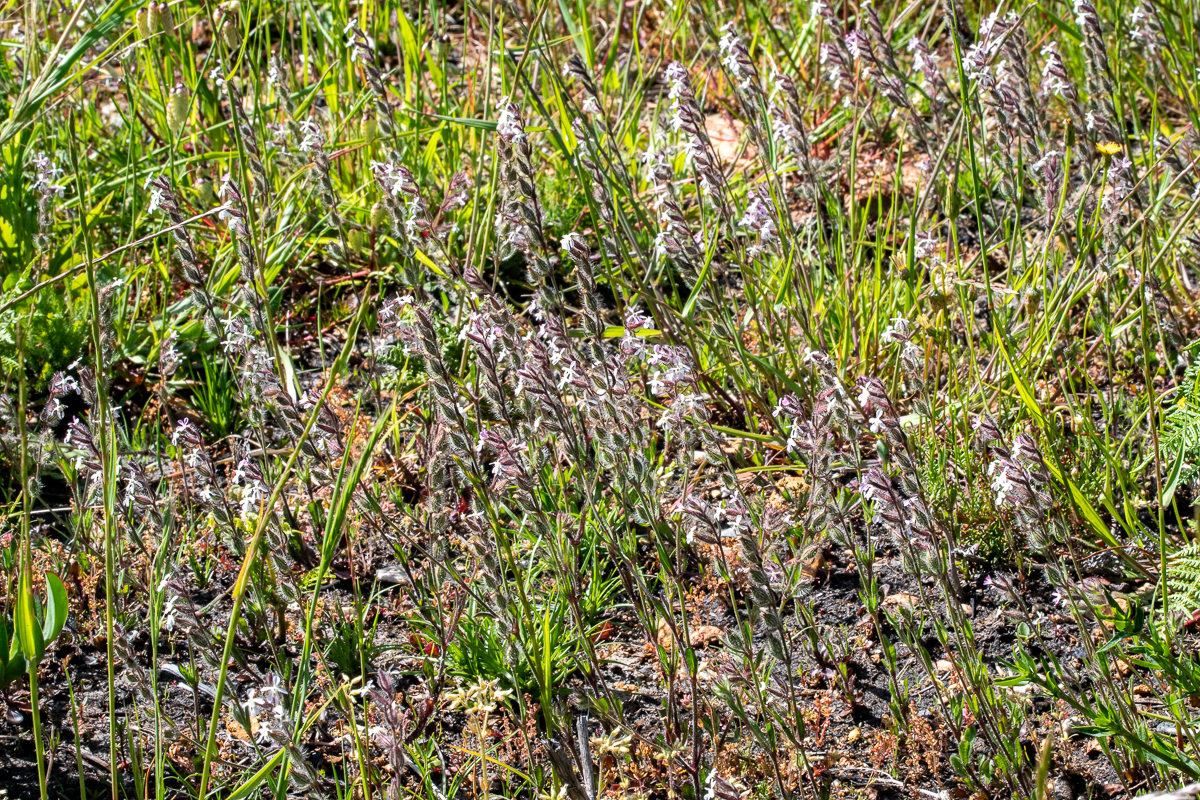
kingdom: Plantae
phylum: Tracheophyta
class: Magnoliopsida
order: Caryophyllales
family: Caryophyllaceae
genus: Silene
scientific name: Silene gallica
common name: Small-flowered catchfly
